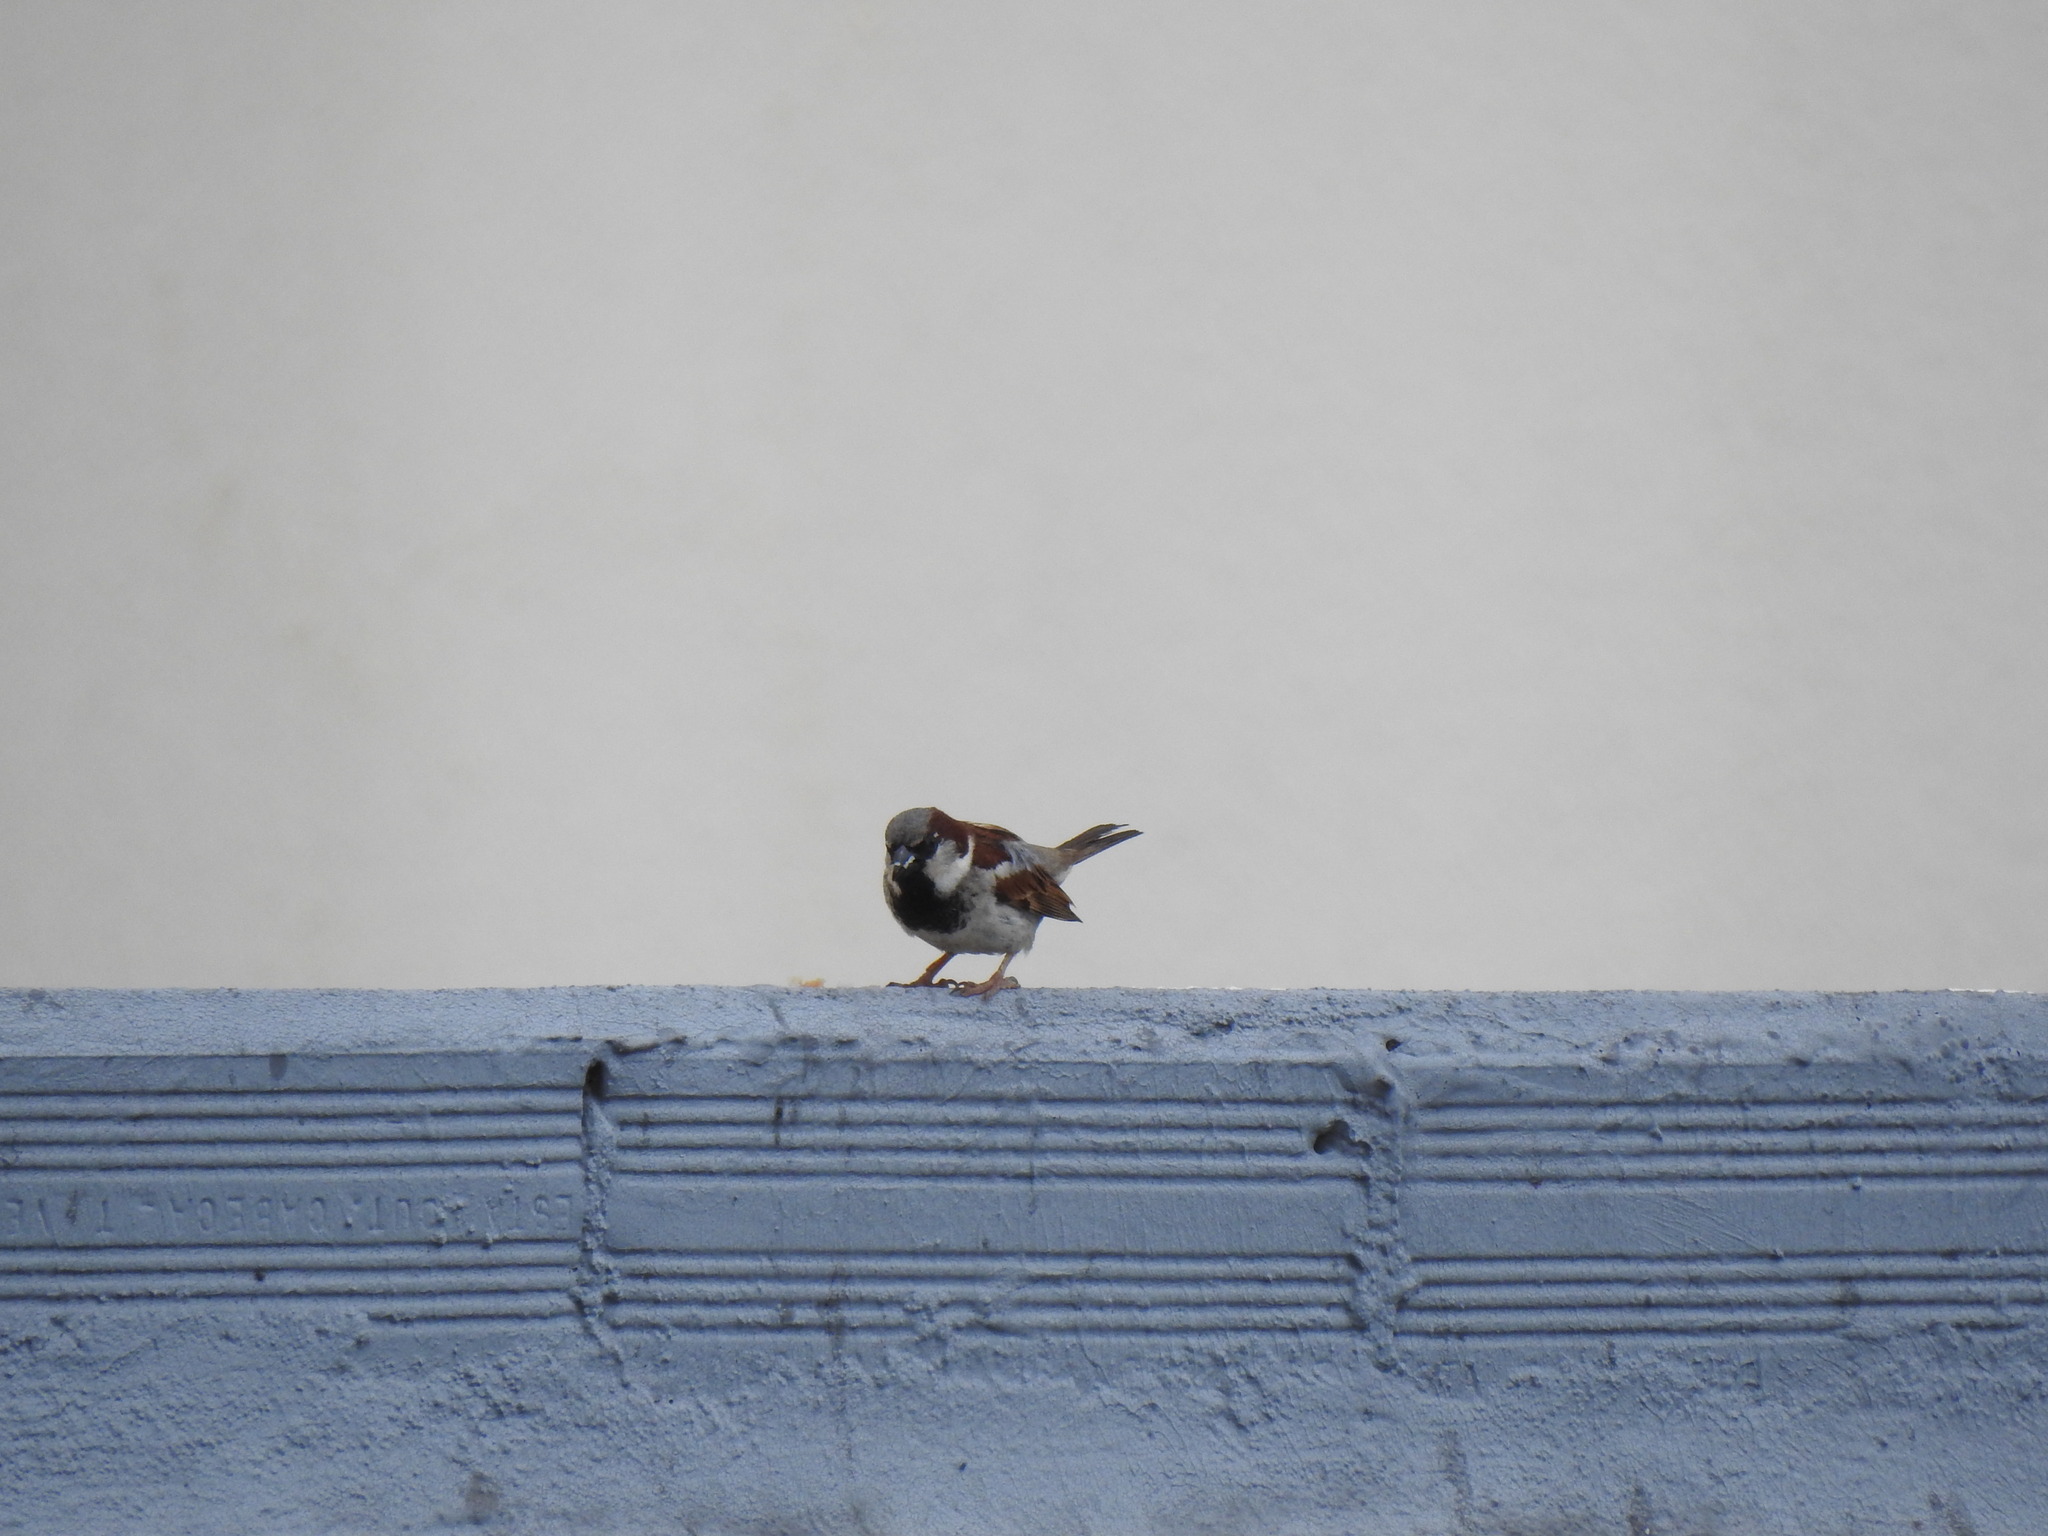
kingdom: Animalia
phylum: Chordata
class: Aves
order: Passeriformes
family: Passeridae
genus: Passer
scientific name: Passer domesticus
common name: House sparrow
